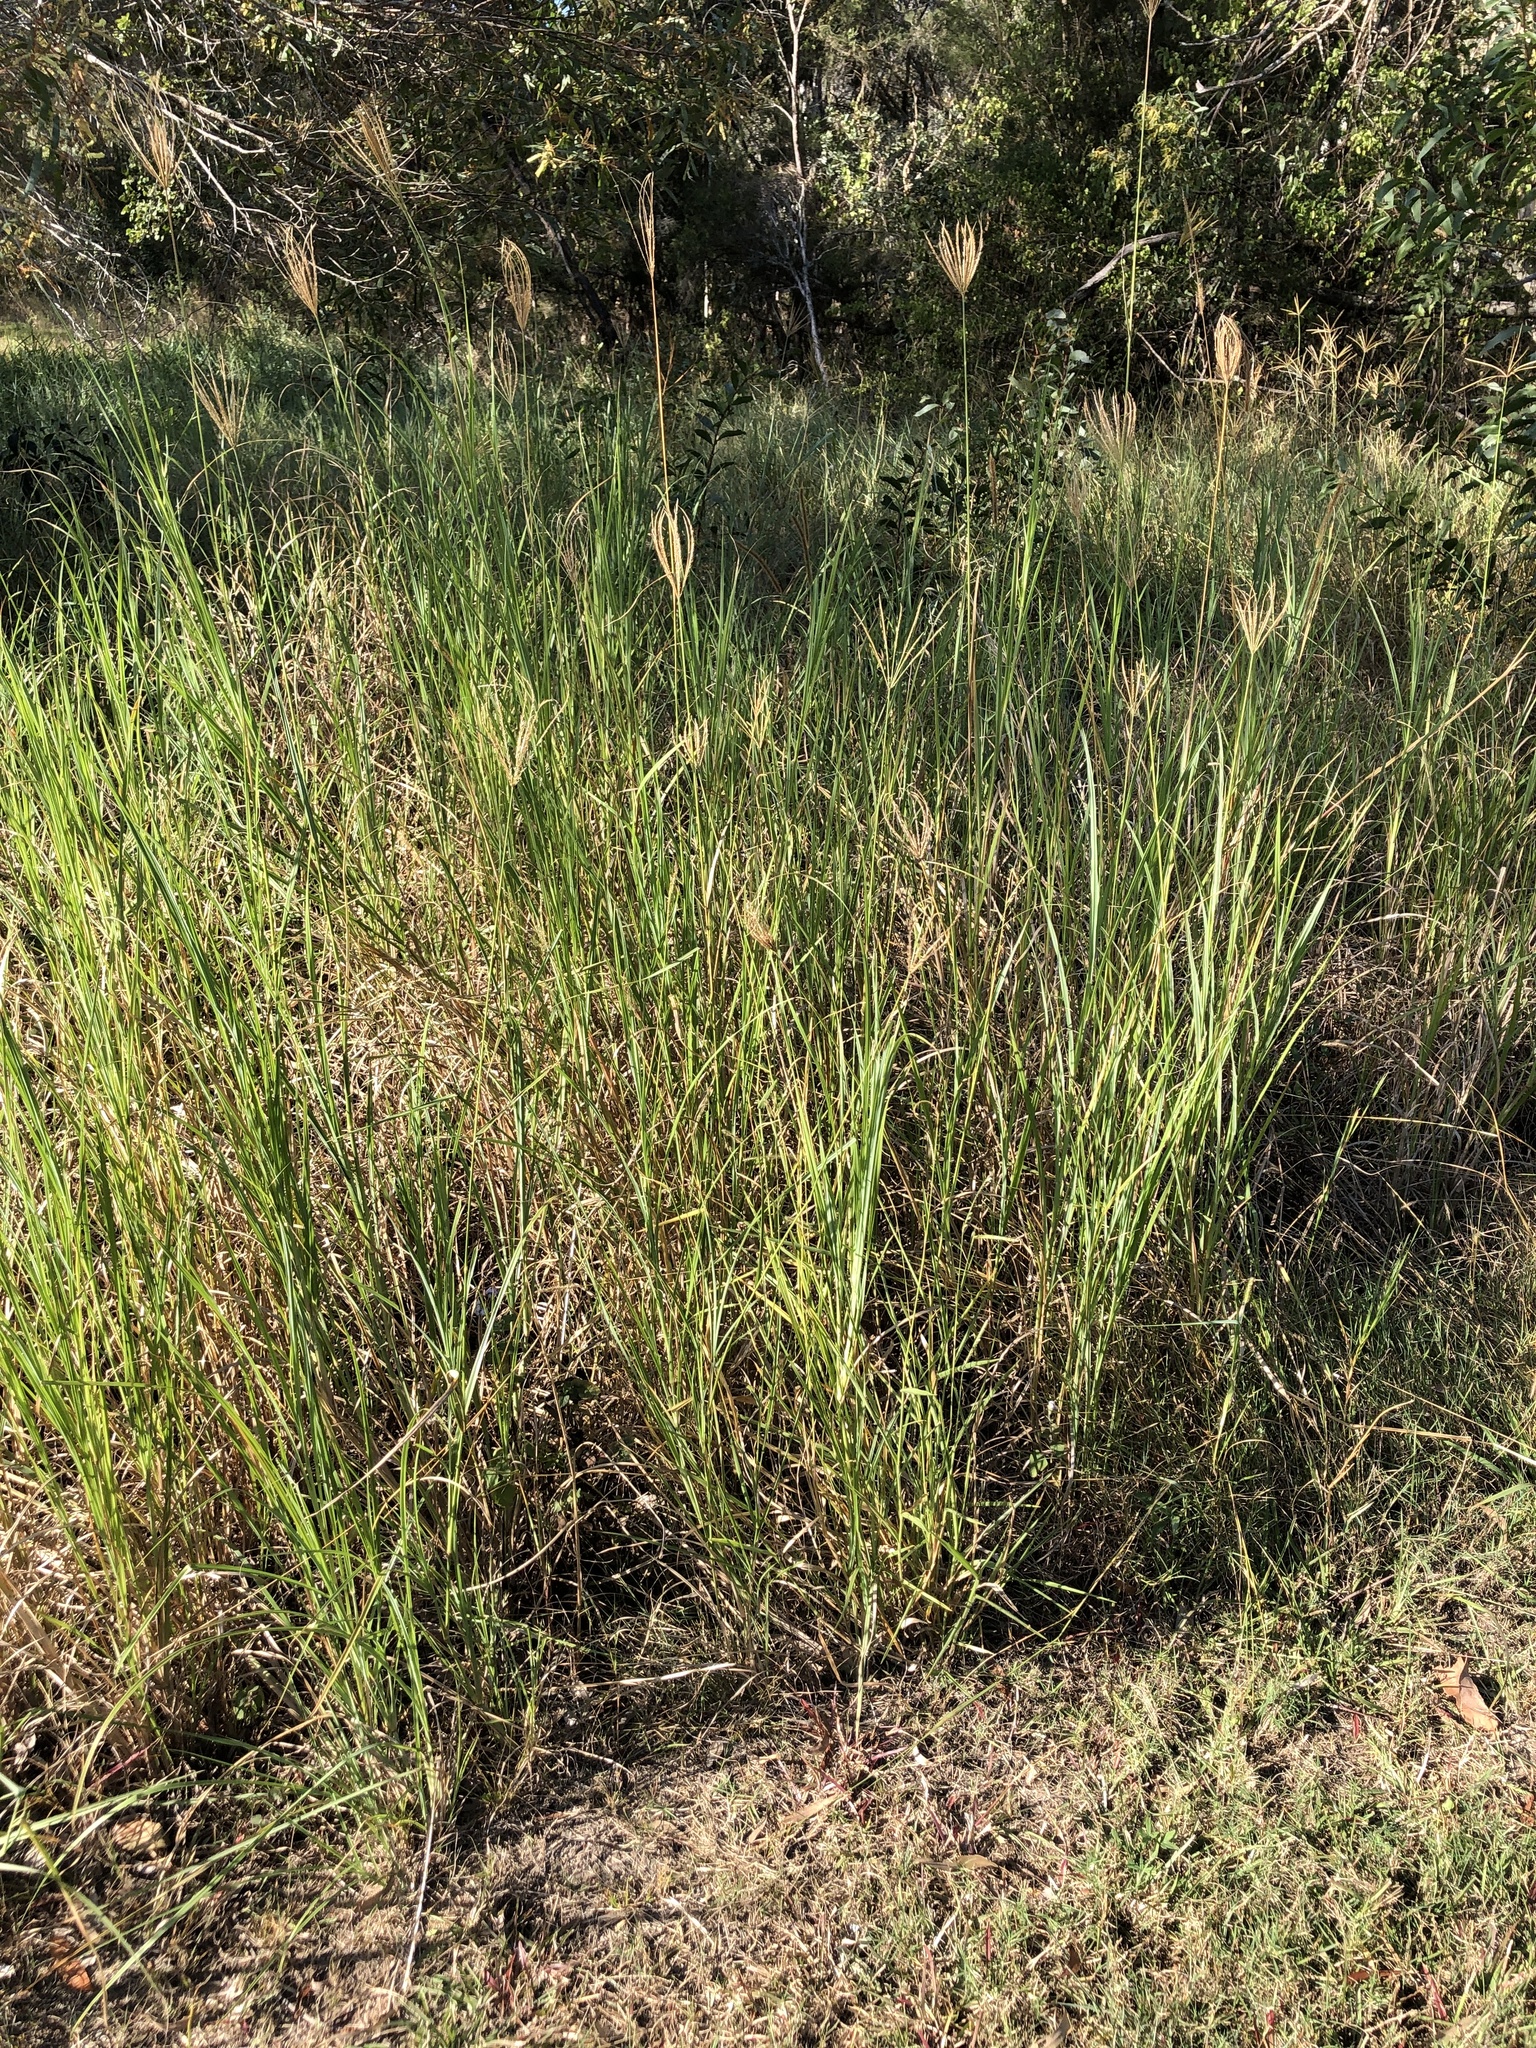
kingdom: Plantae
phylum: Tracheophyta
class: Liliopsida
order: Poales
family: Poaceae
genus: Chloris
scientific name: Chloris gayana
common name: Rhodes grass
